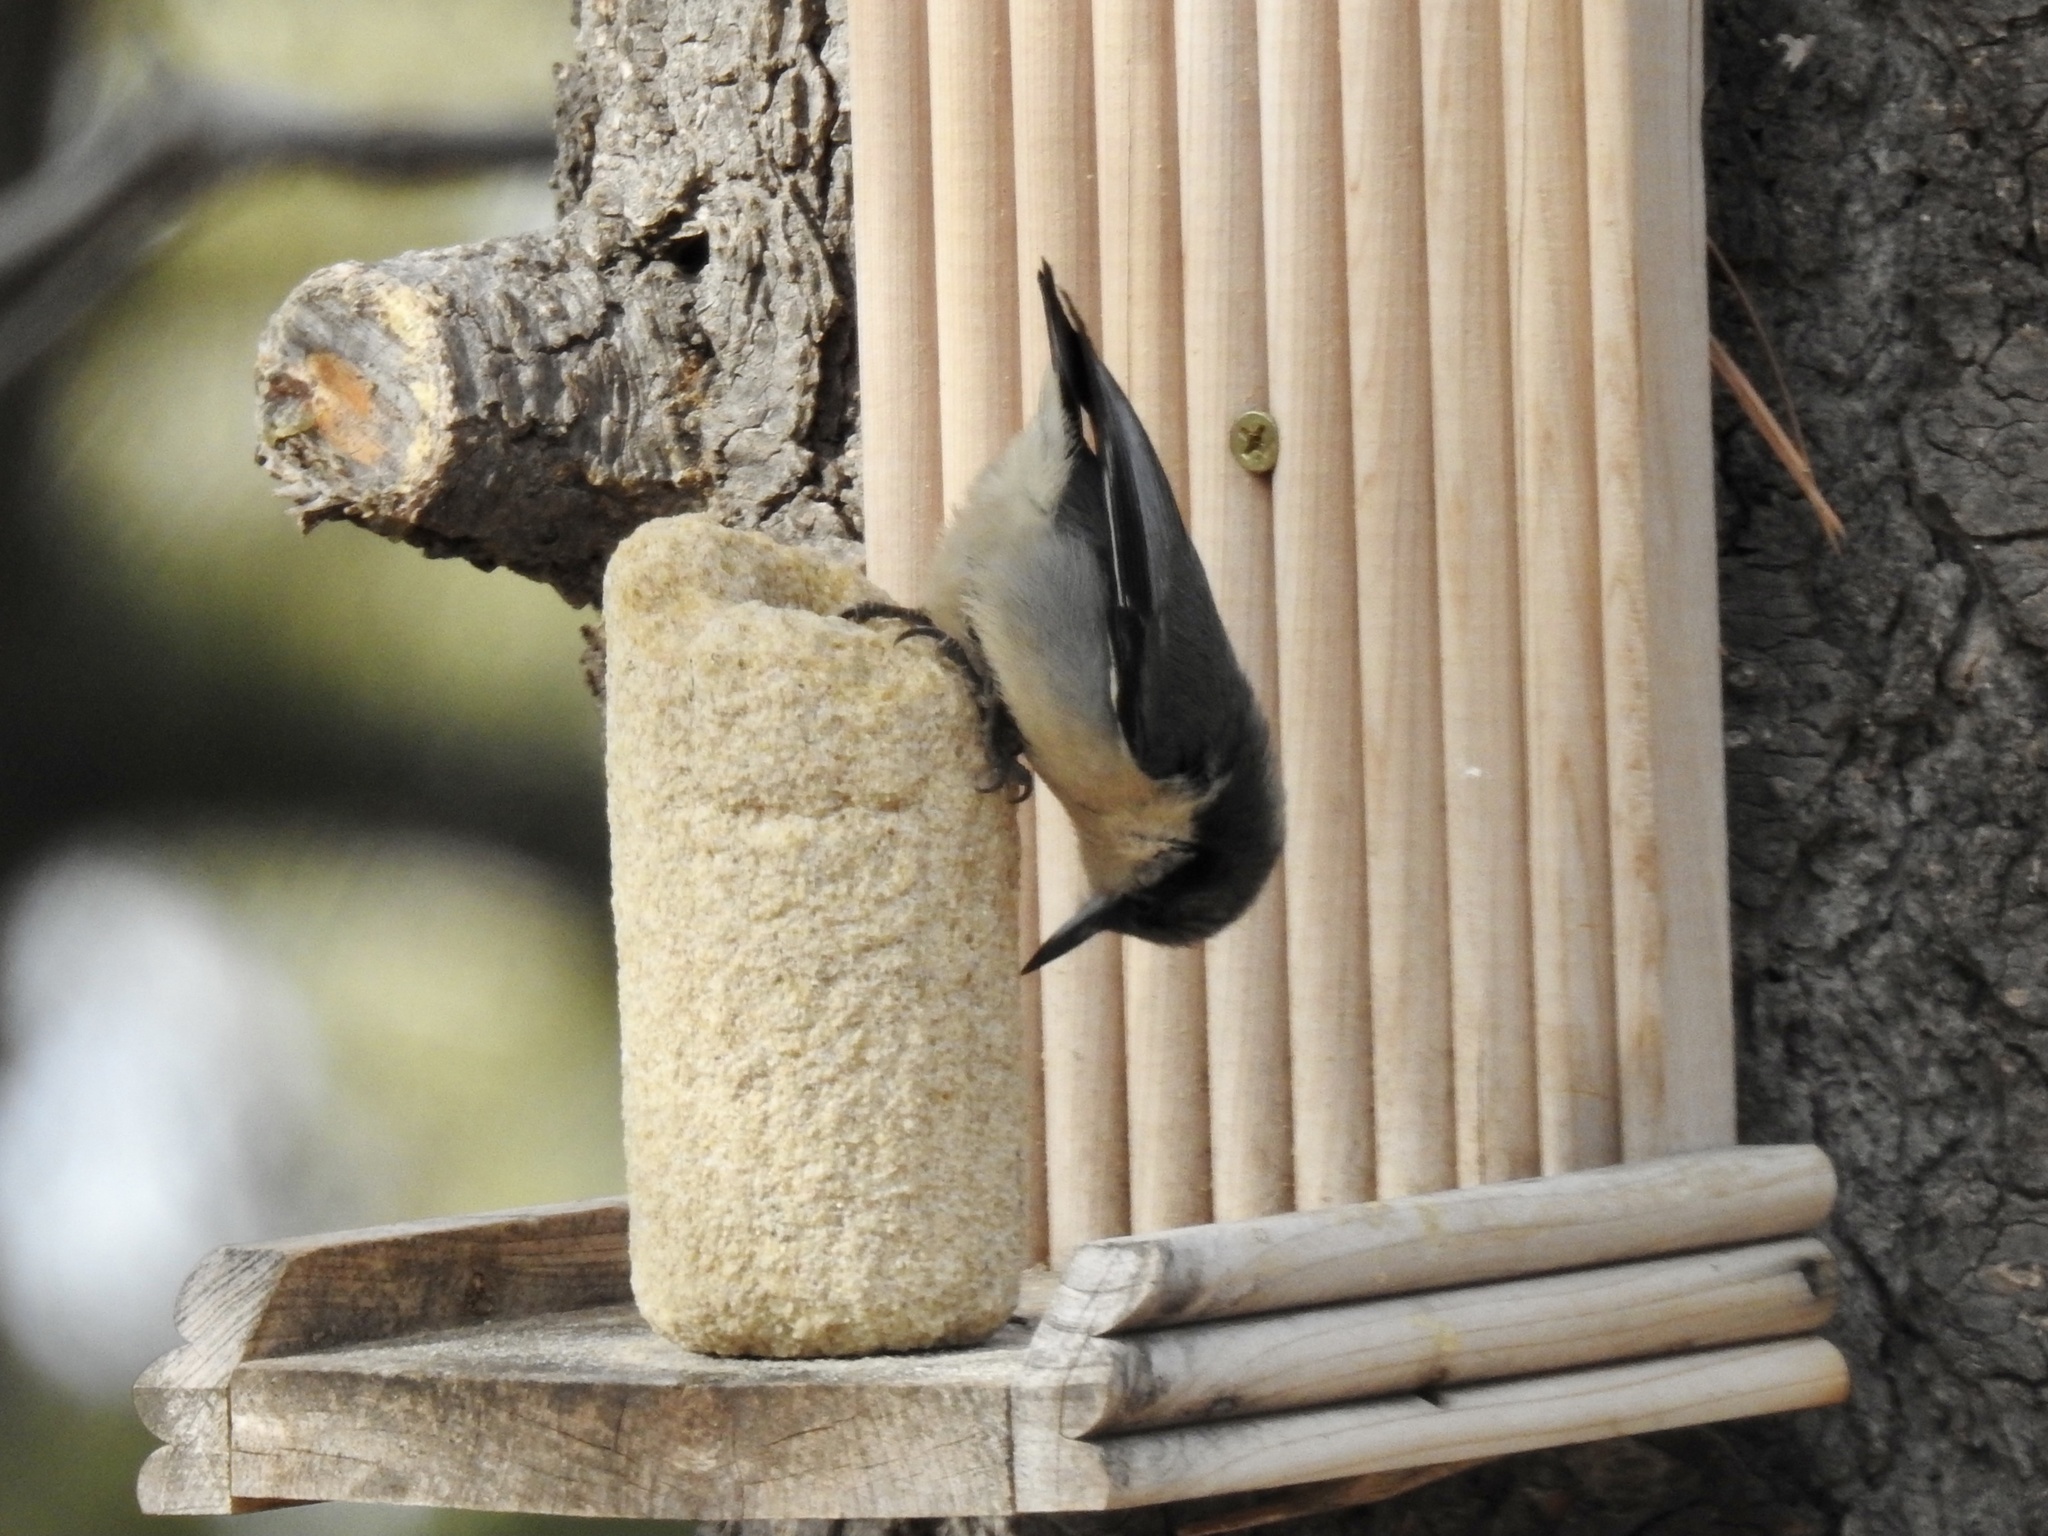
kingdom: Animalia
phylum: Chordata
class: Aves
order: Passeriformes
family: Sittidae
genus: Sitta
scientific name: Sitta pygmaea
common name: Pygmy nuthatch
